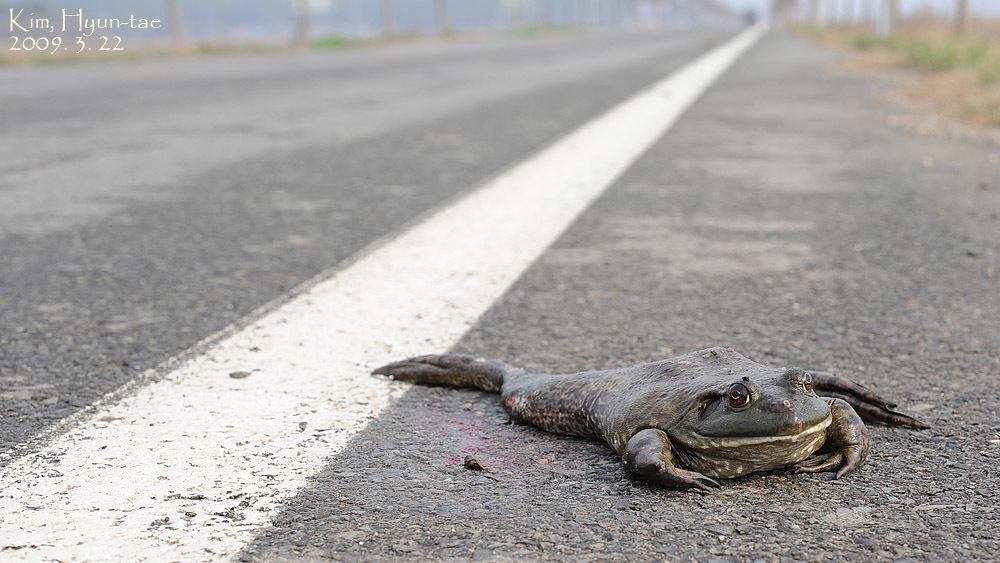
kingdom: Animalia
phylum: Chordata
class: Amphibia
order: Anura
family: Ranidae
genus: Lithobates
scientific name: Lithobates catesbeianus
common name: American bullfrog
